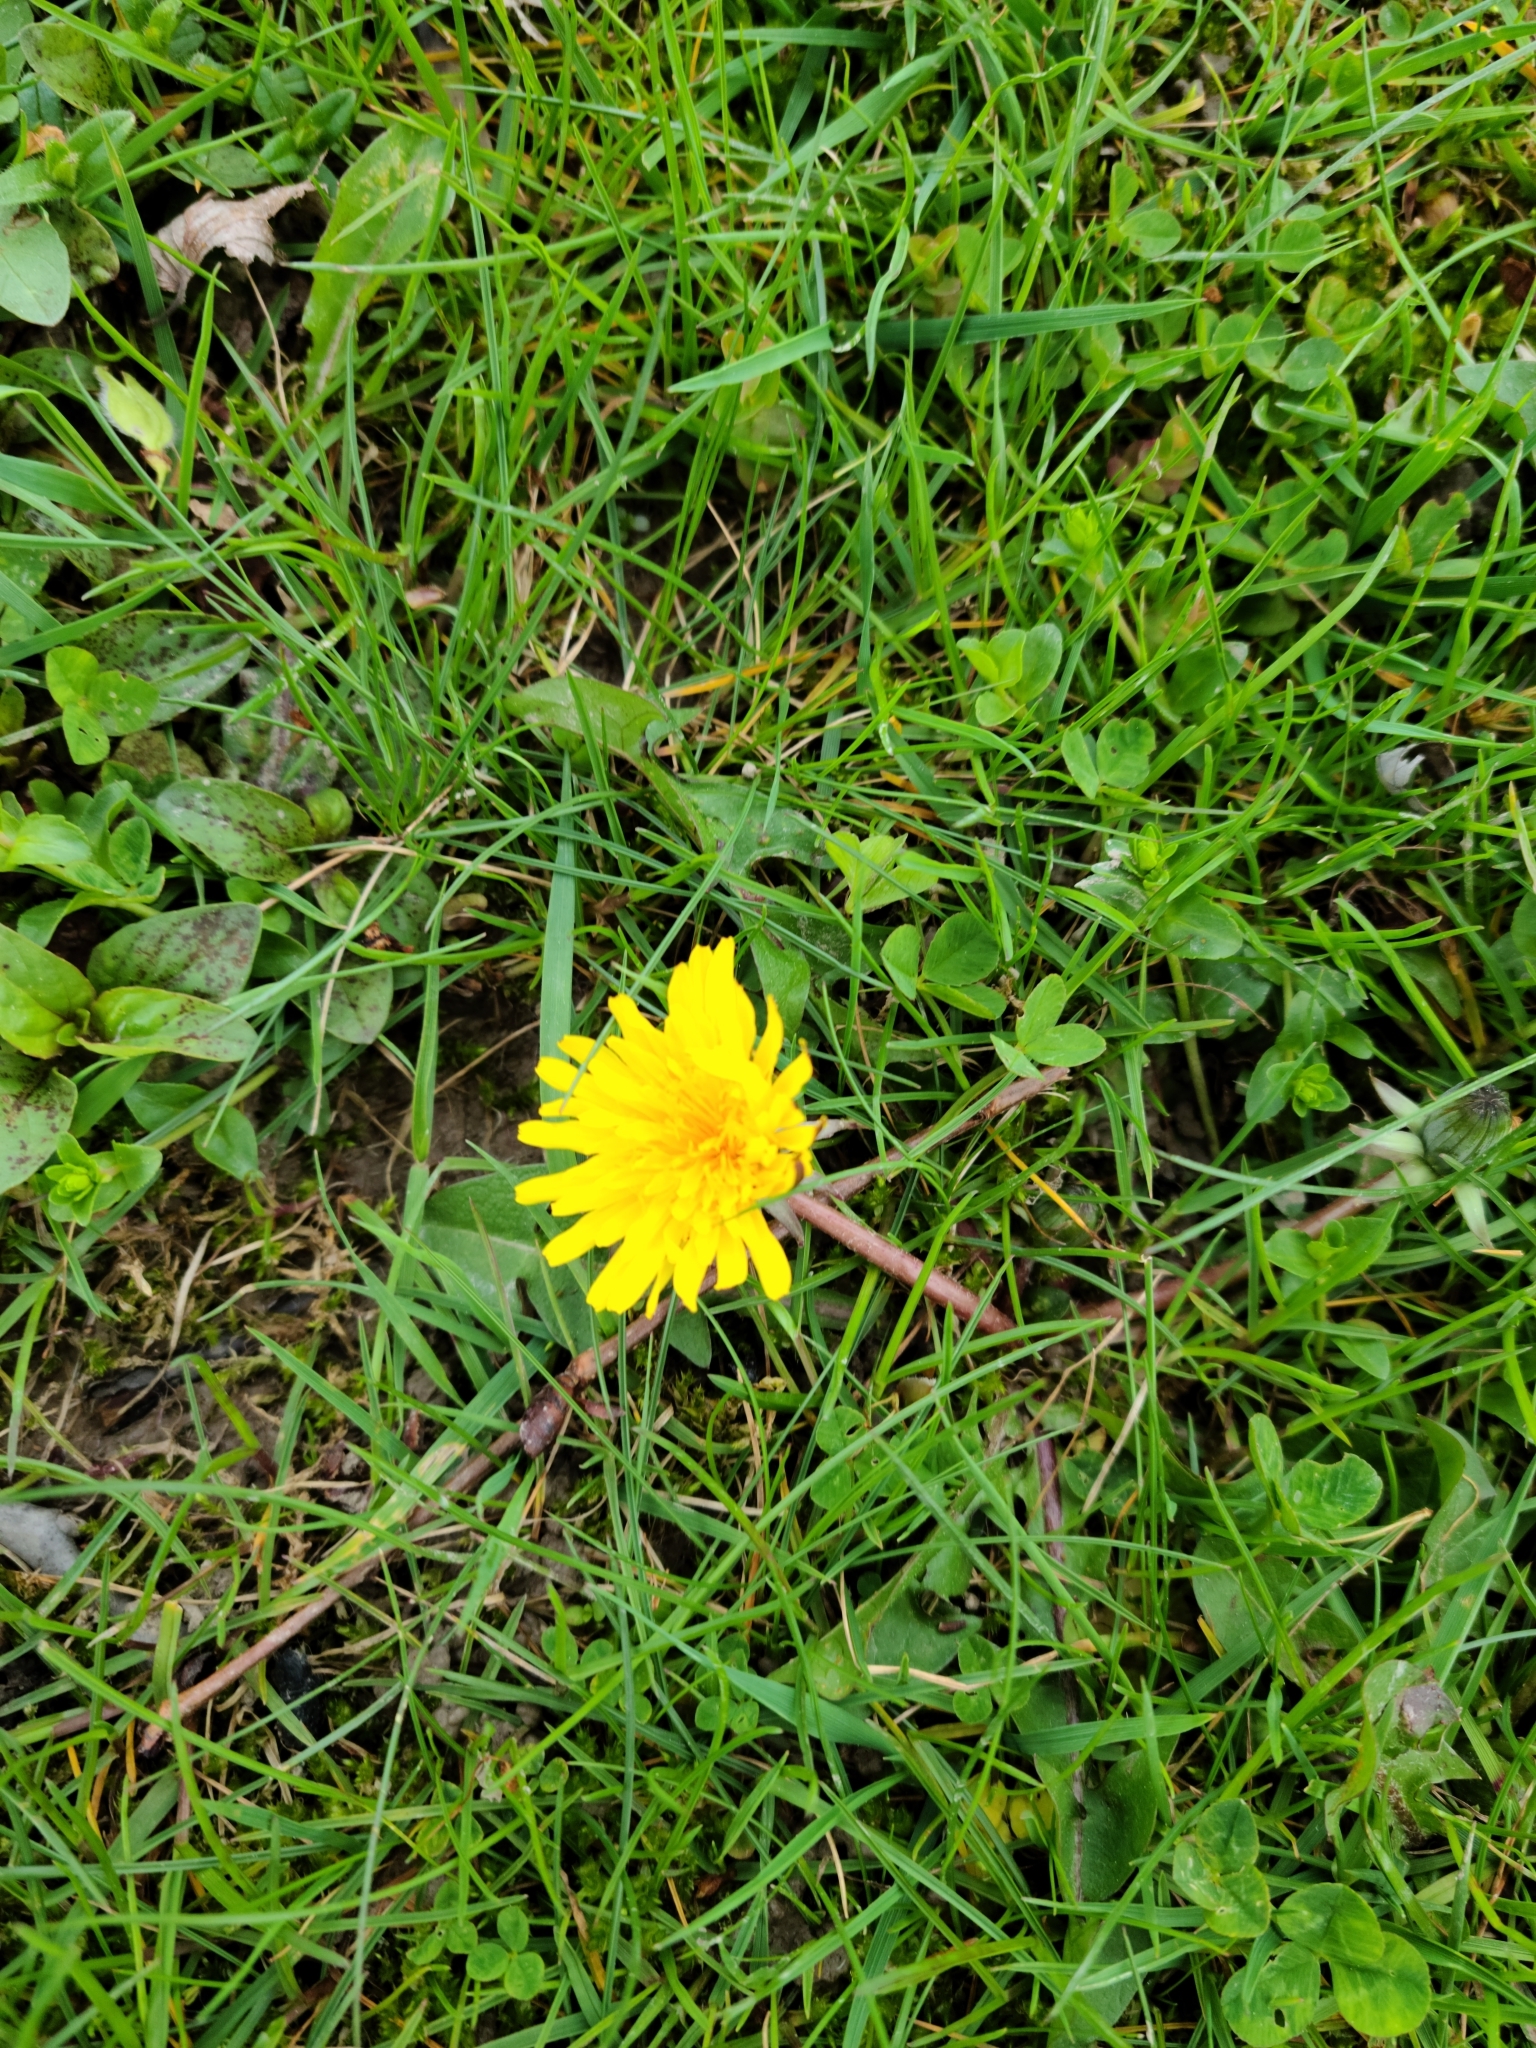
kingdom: Plantae
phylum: Tracheophyta
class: Magnoliopsida
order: Asterales
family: Asteraceae
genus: Taraxacum
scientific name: Taraxacum officinale
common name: Common dandelion
